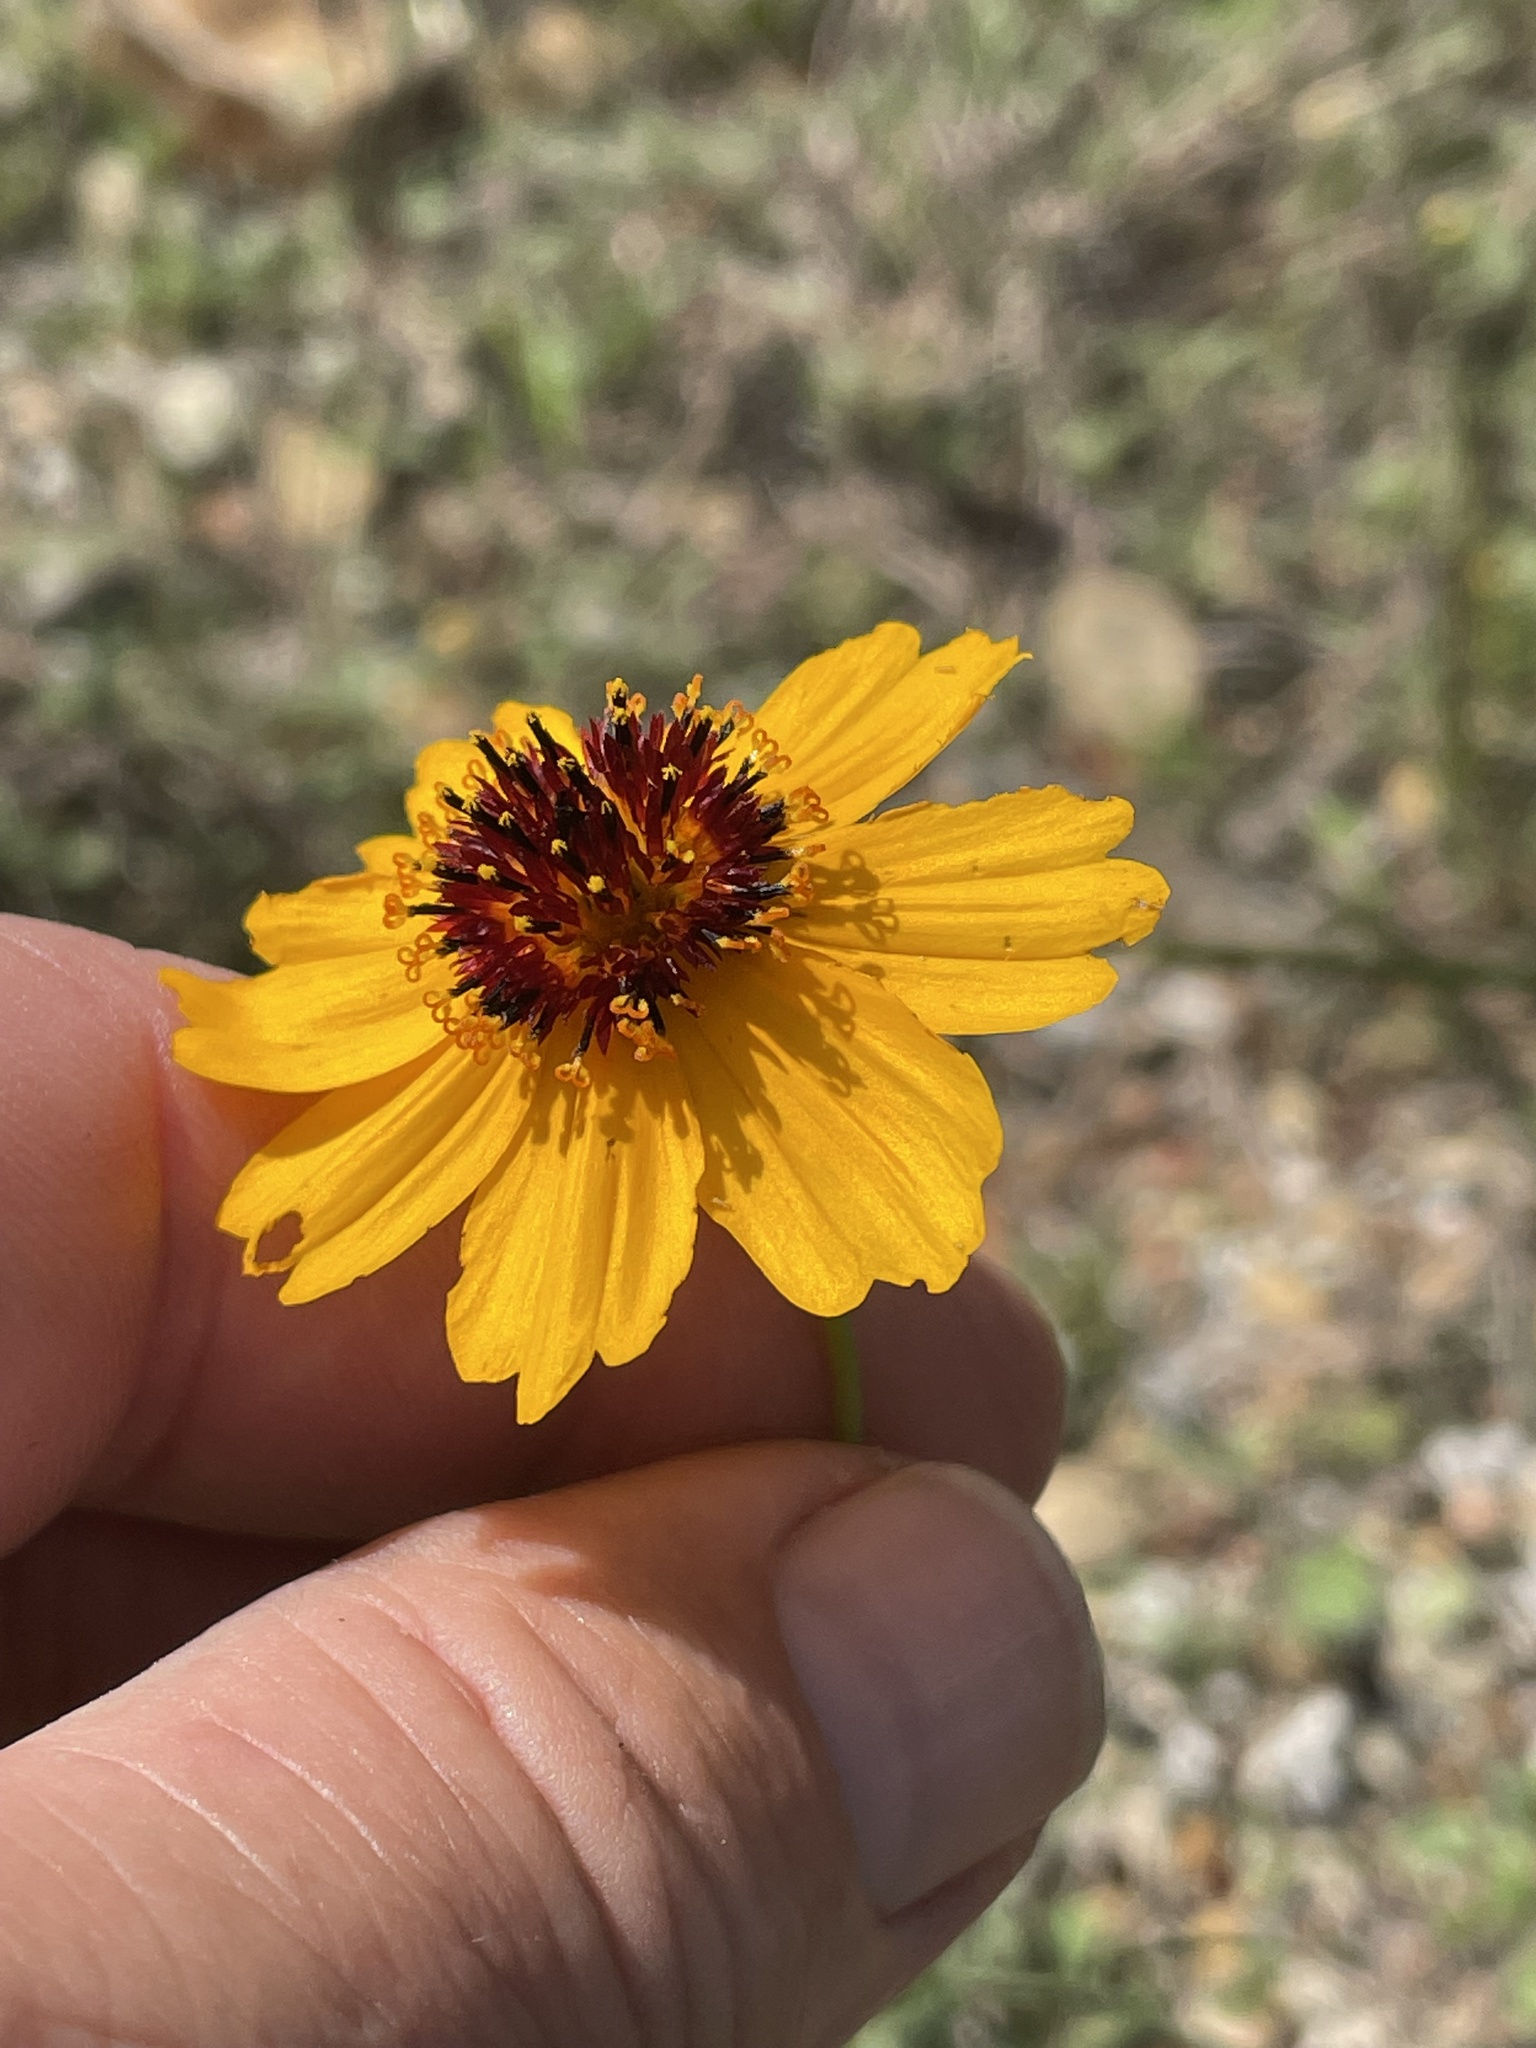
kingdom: Plantae
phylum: Tracheophyta
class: Magnoliopsida
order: Asterales
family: Asteraceae
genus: Thelesperma
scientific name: Thelesperma filifolium
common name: Stiff greenthread
